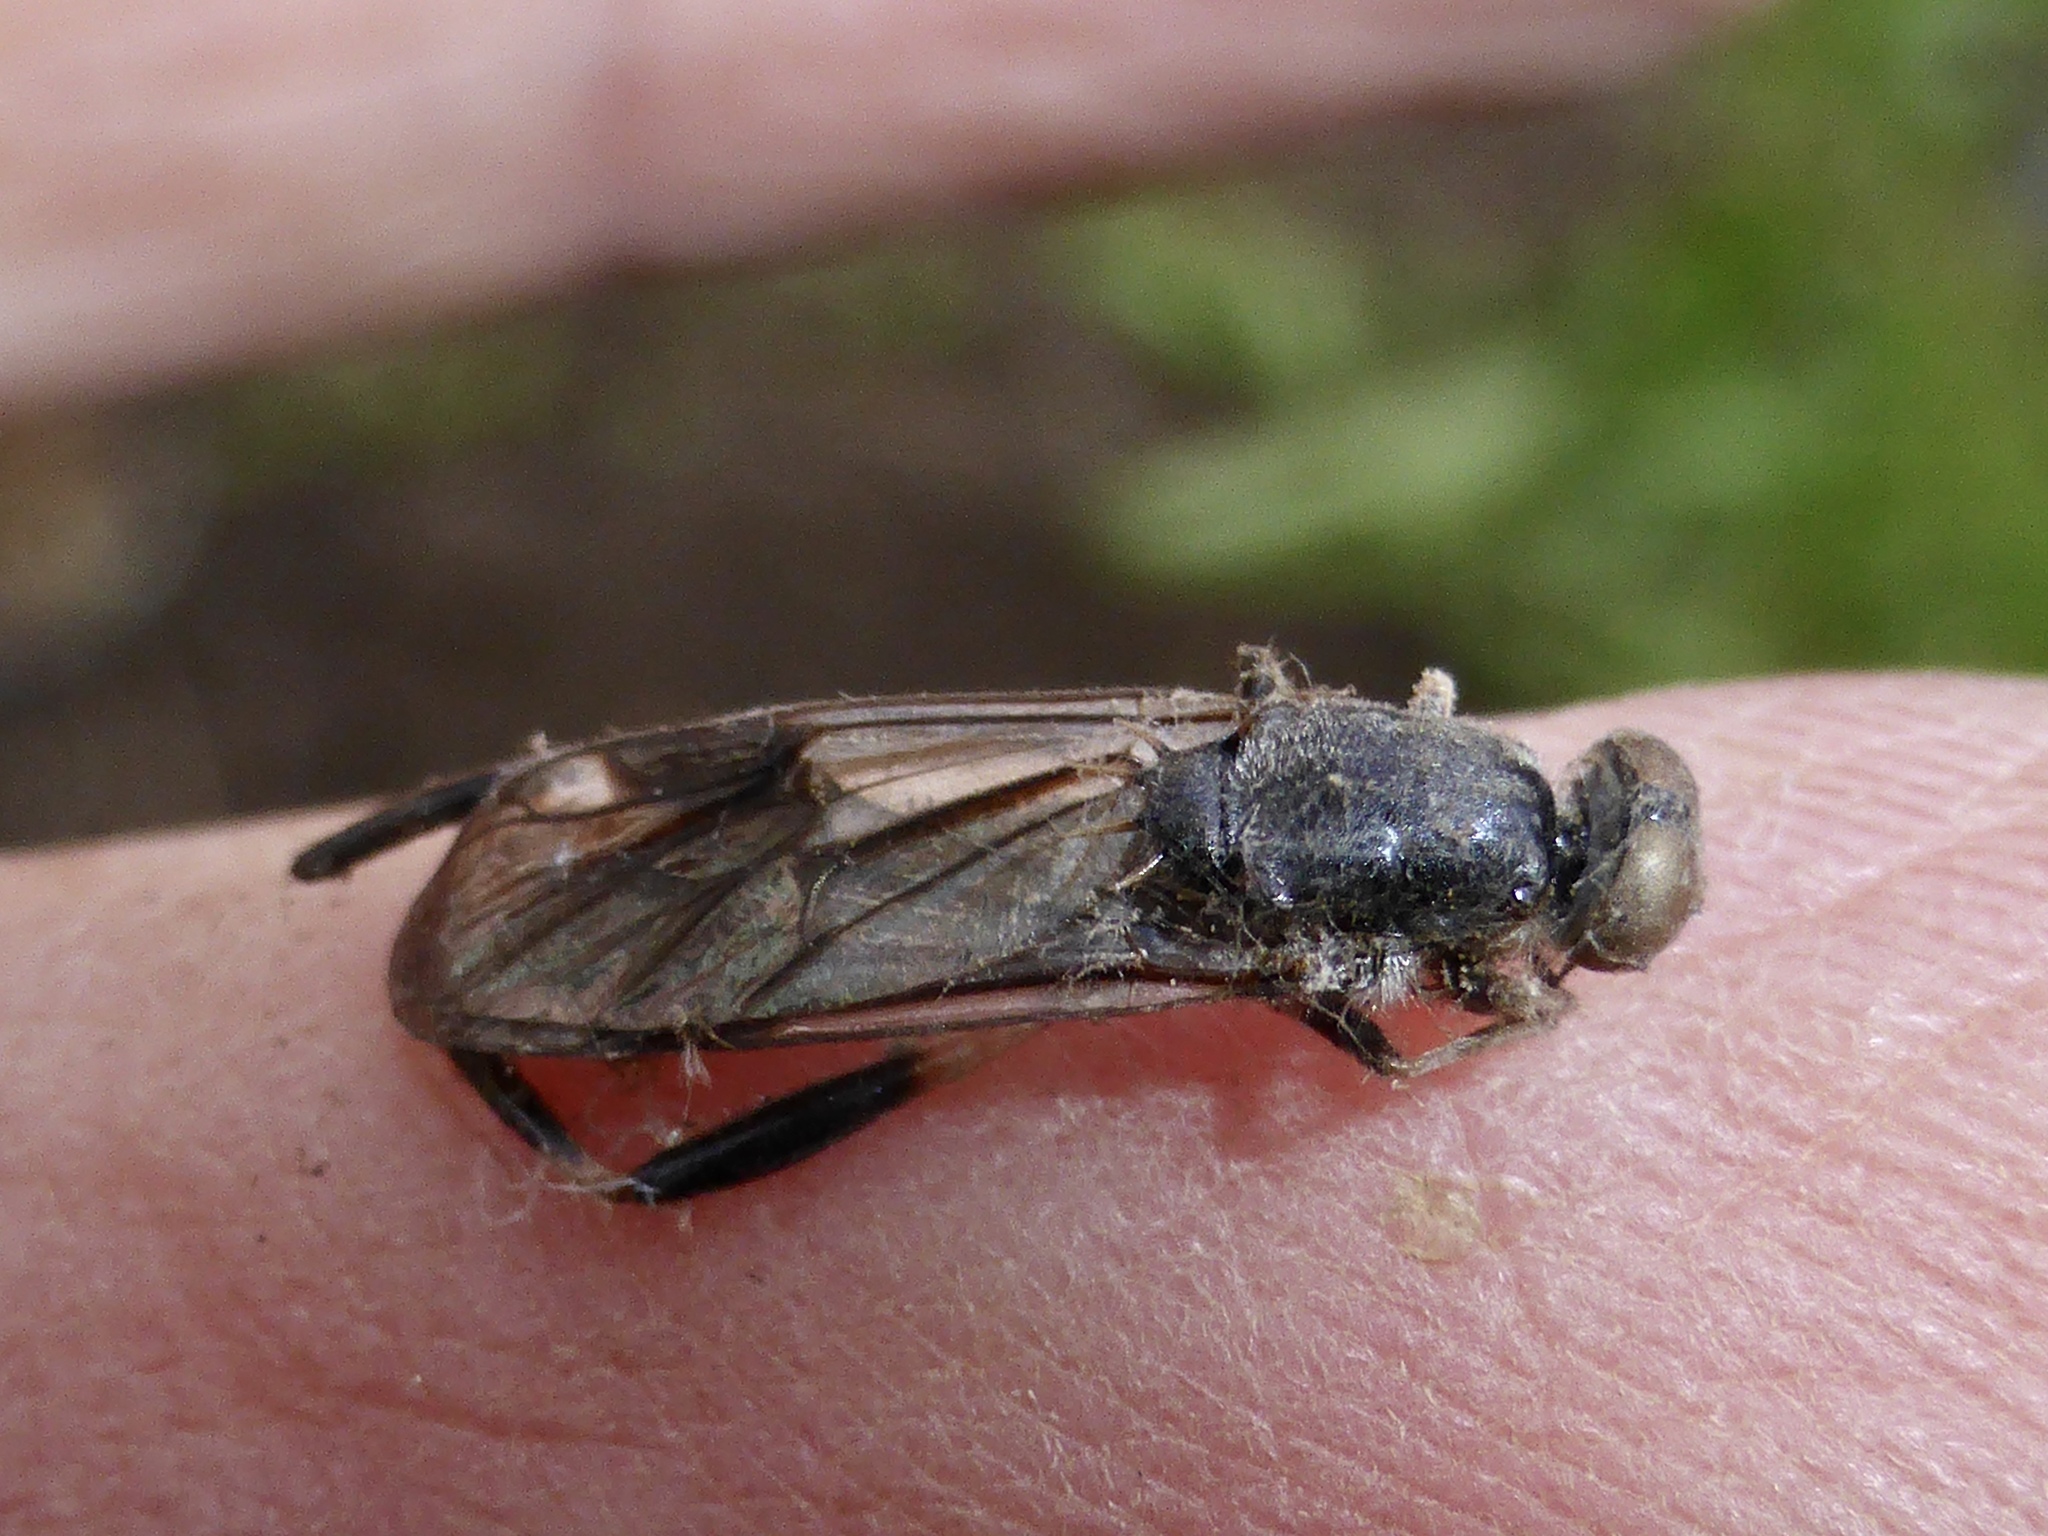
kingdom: Animalia
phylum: Arthropoda
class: Insecta
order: Diptera
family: Stratiomyidae
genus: Exaireta
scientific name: Exaireta spinigera
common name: Blue soldier fly
